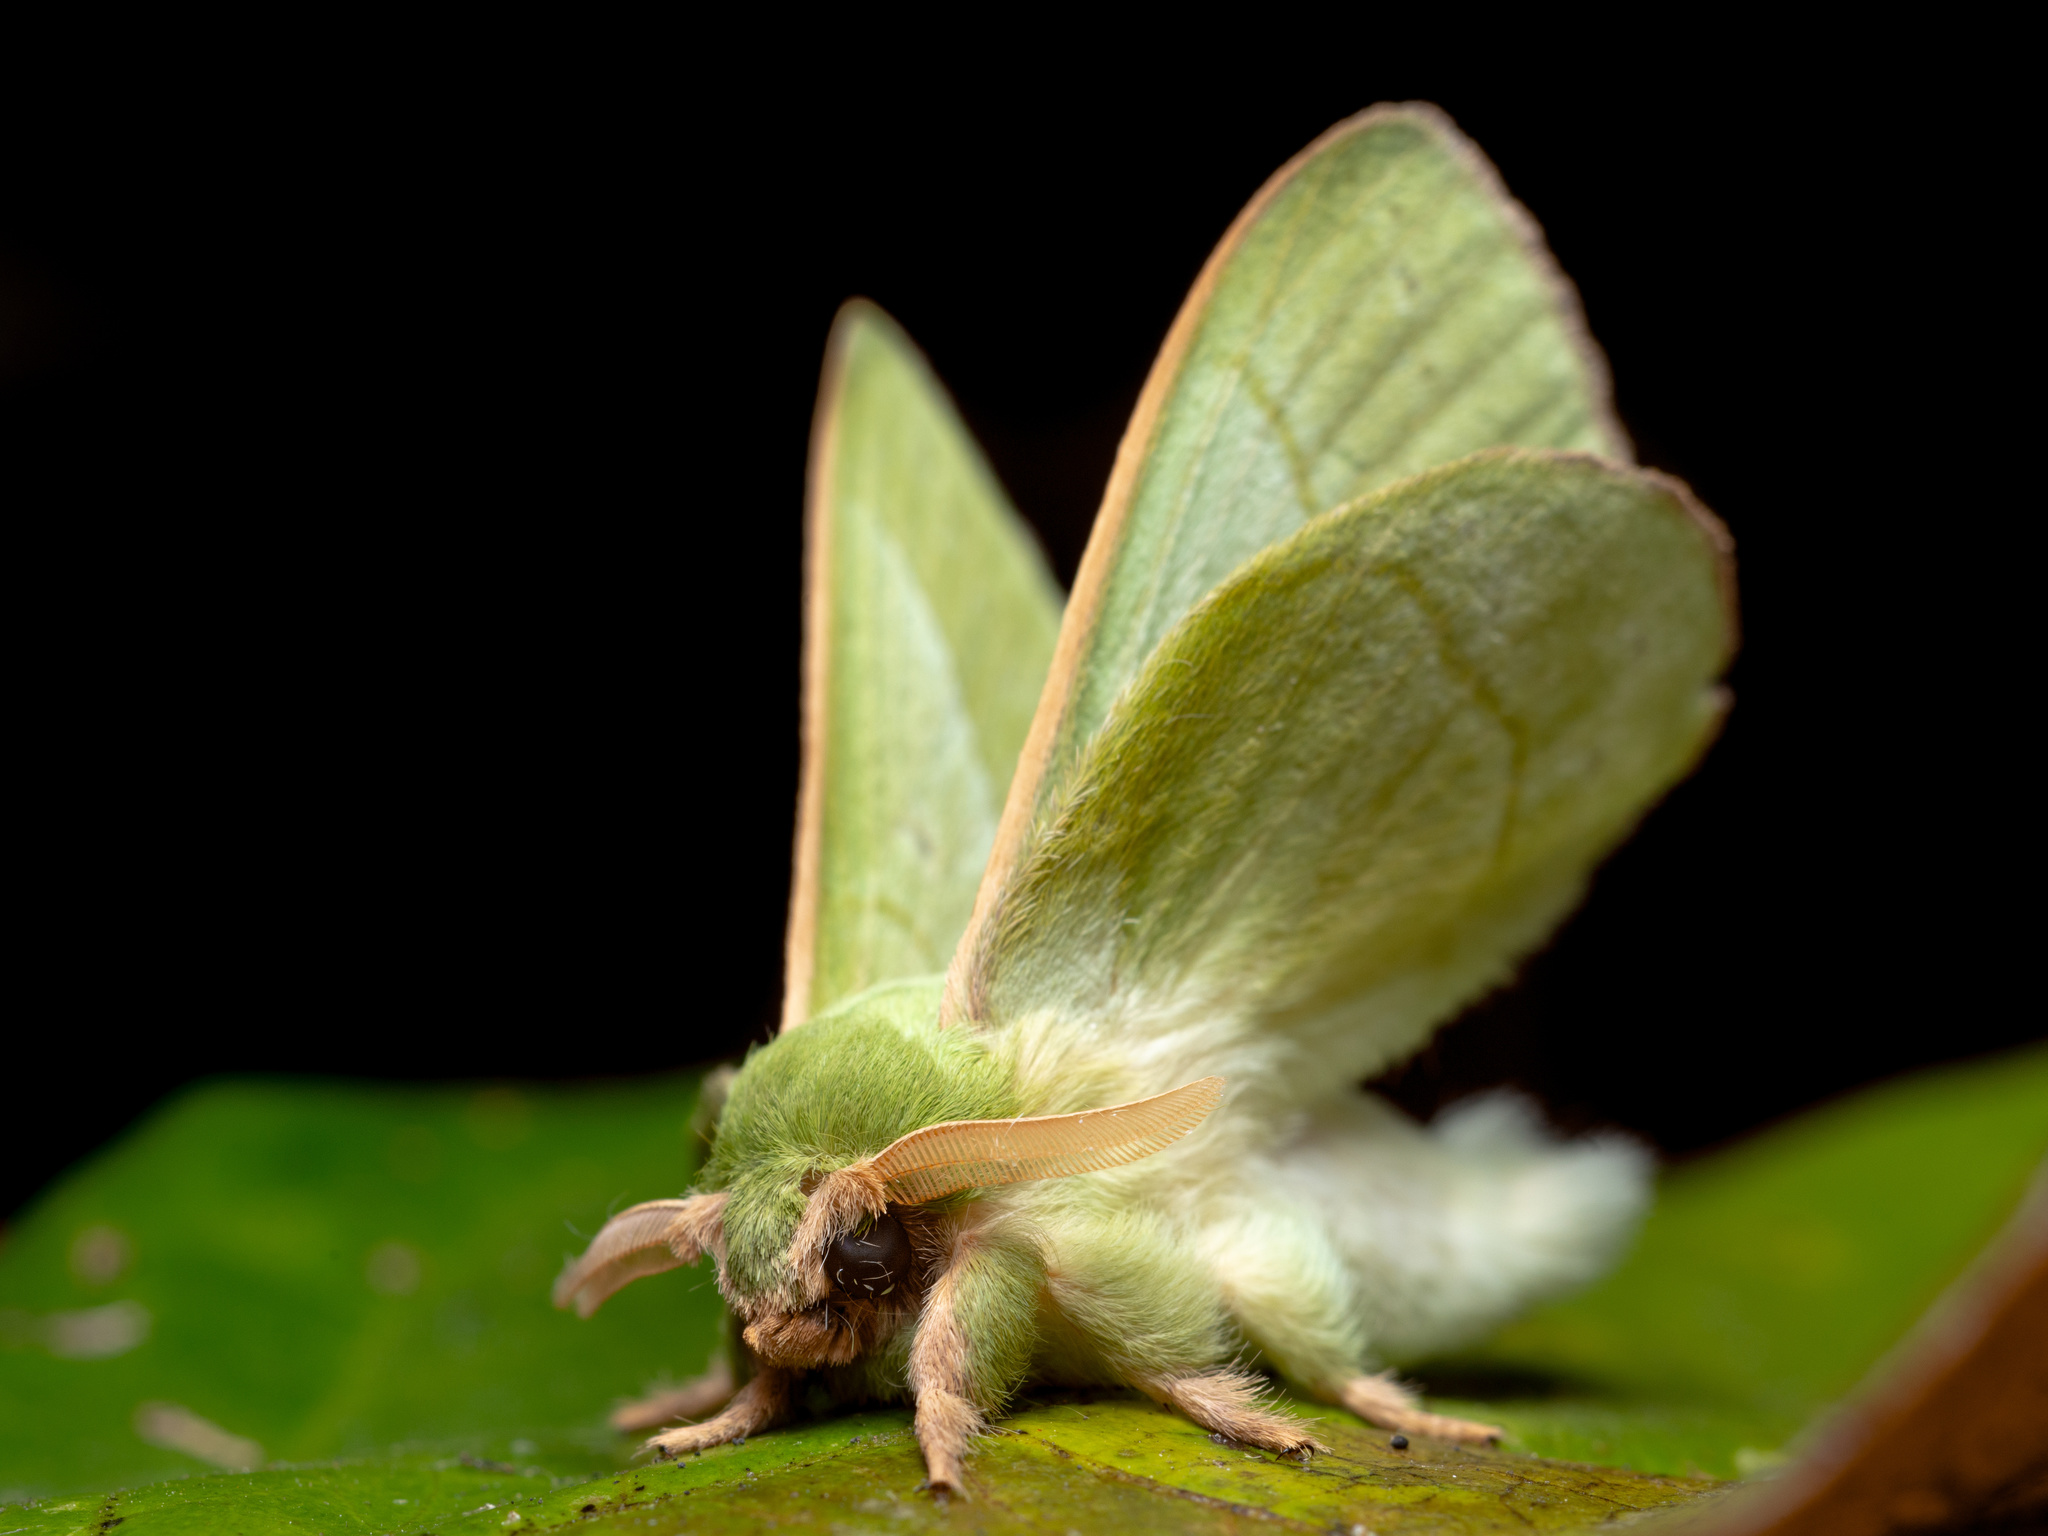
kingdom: Animalia
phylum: Arthropoda
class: Insecta
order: Lepidoptera
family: Lasiocampidae
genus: Trabala
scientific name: Trabala pallida
